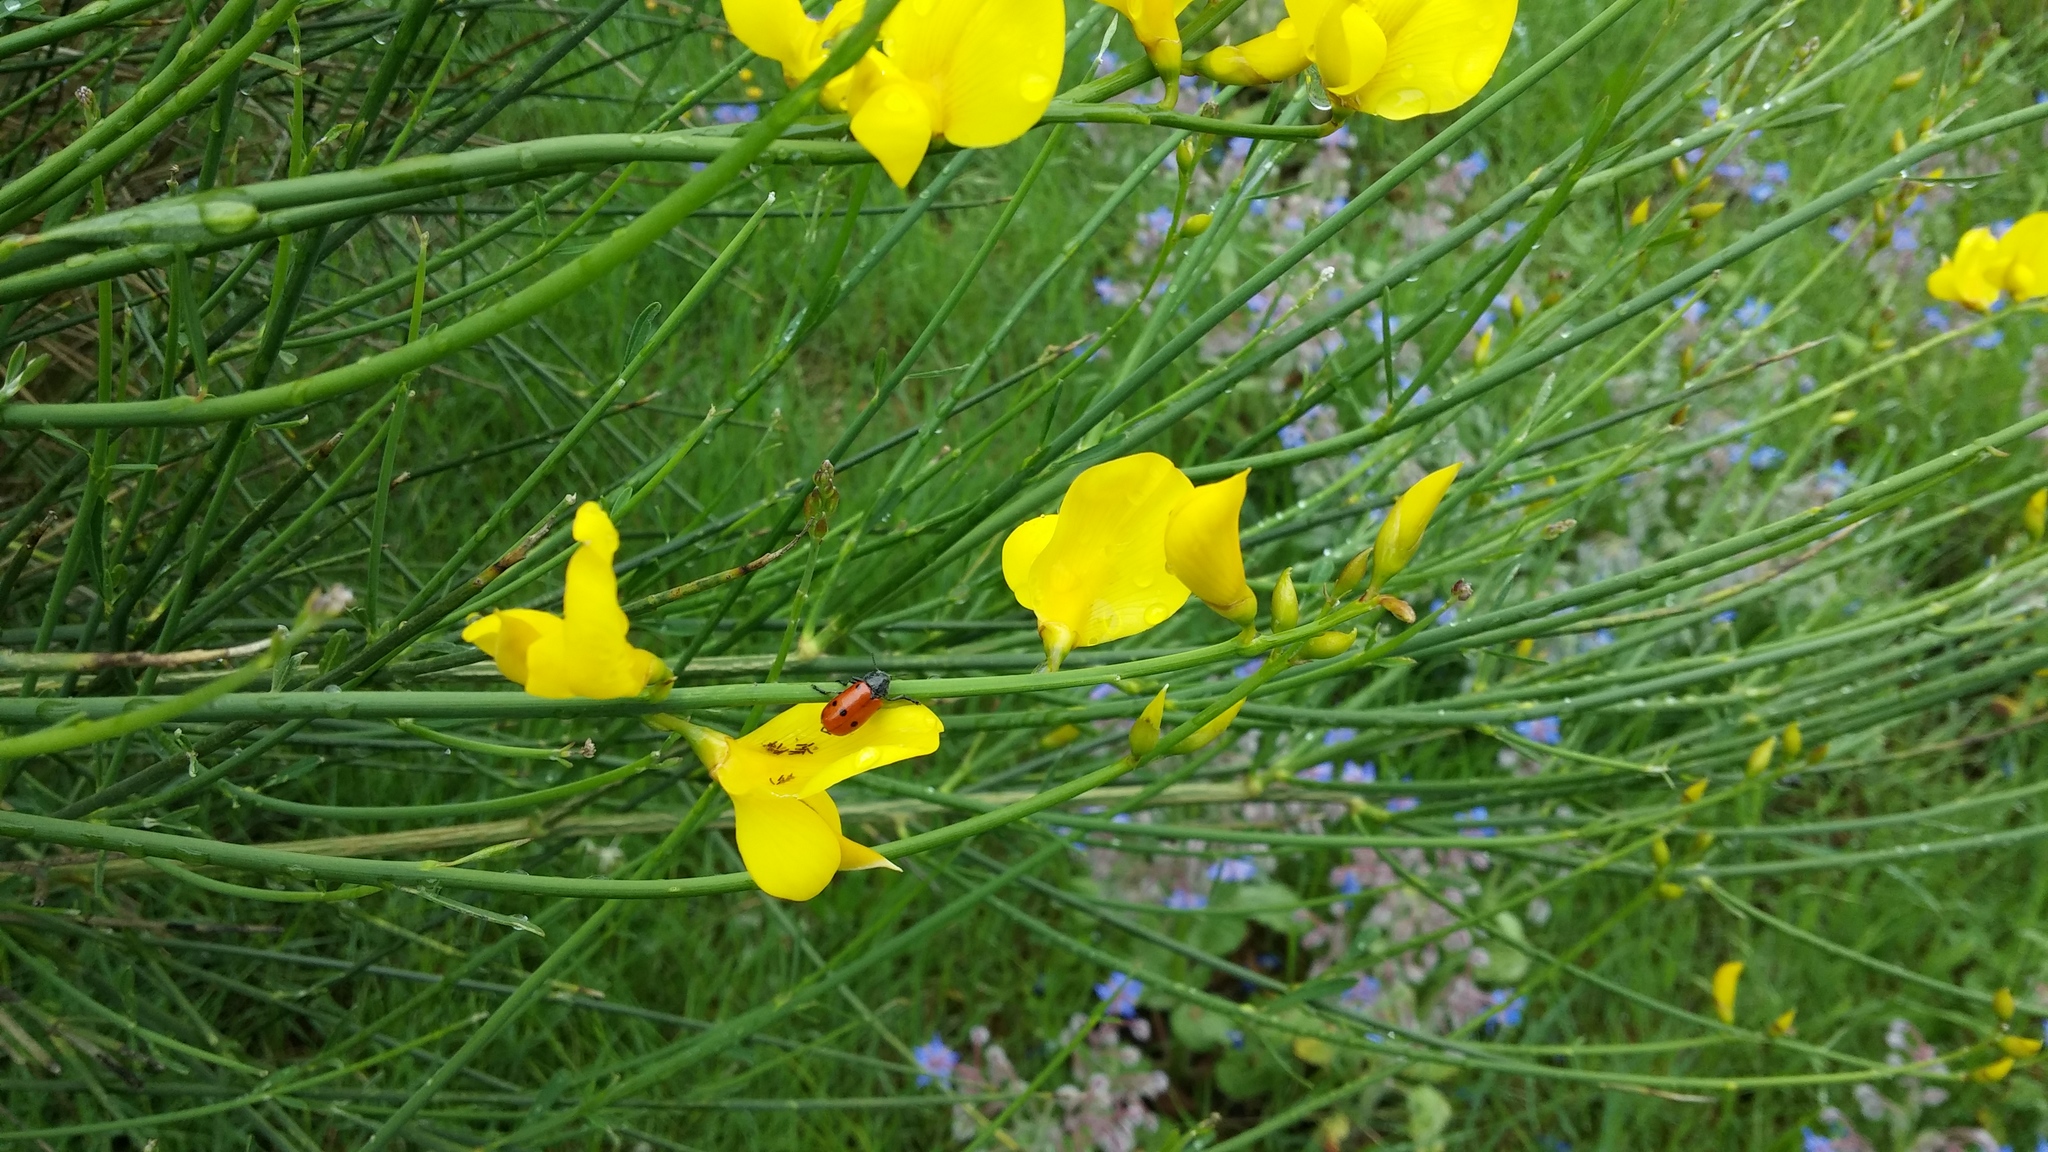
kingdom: Plantae
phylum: Tracheophyta
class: Magnoliopsida
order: Fabales
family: Fabaceae
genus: Spartium
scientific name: Spartium junceum
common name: Spanish broom
